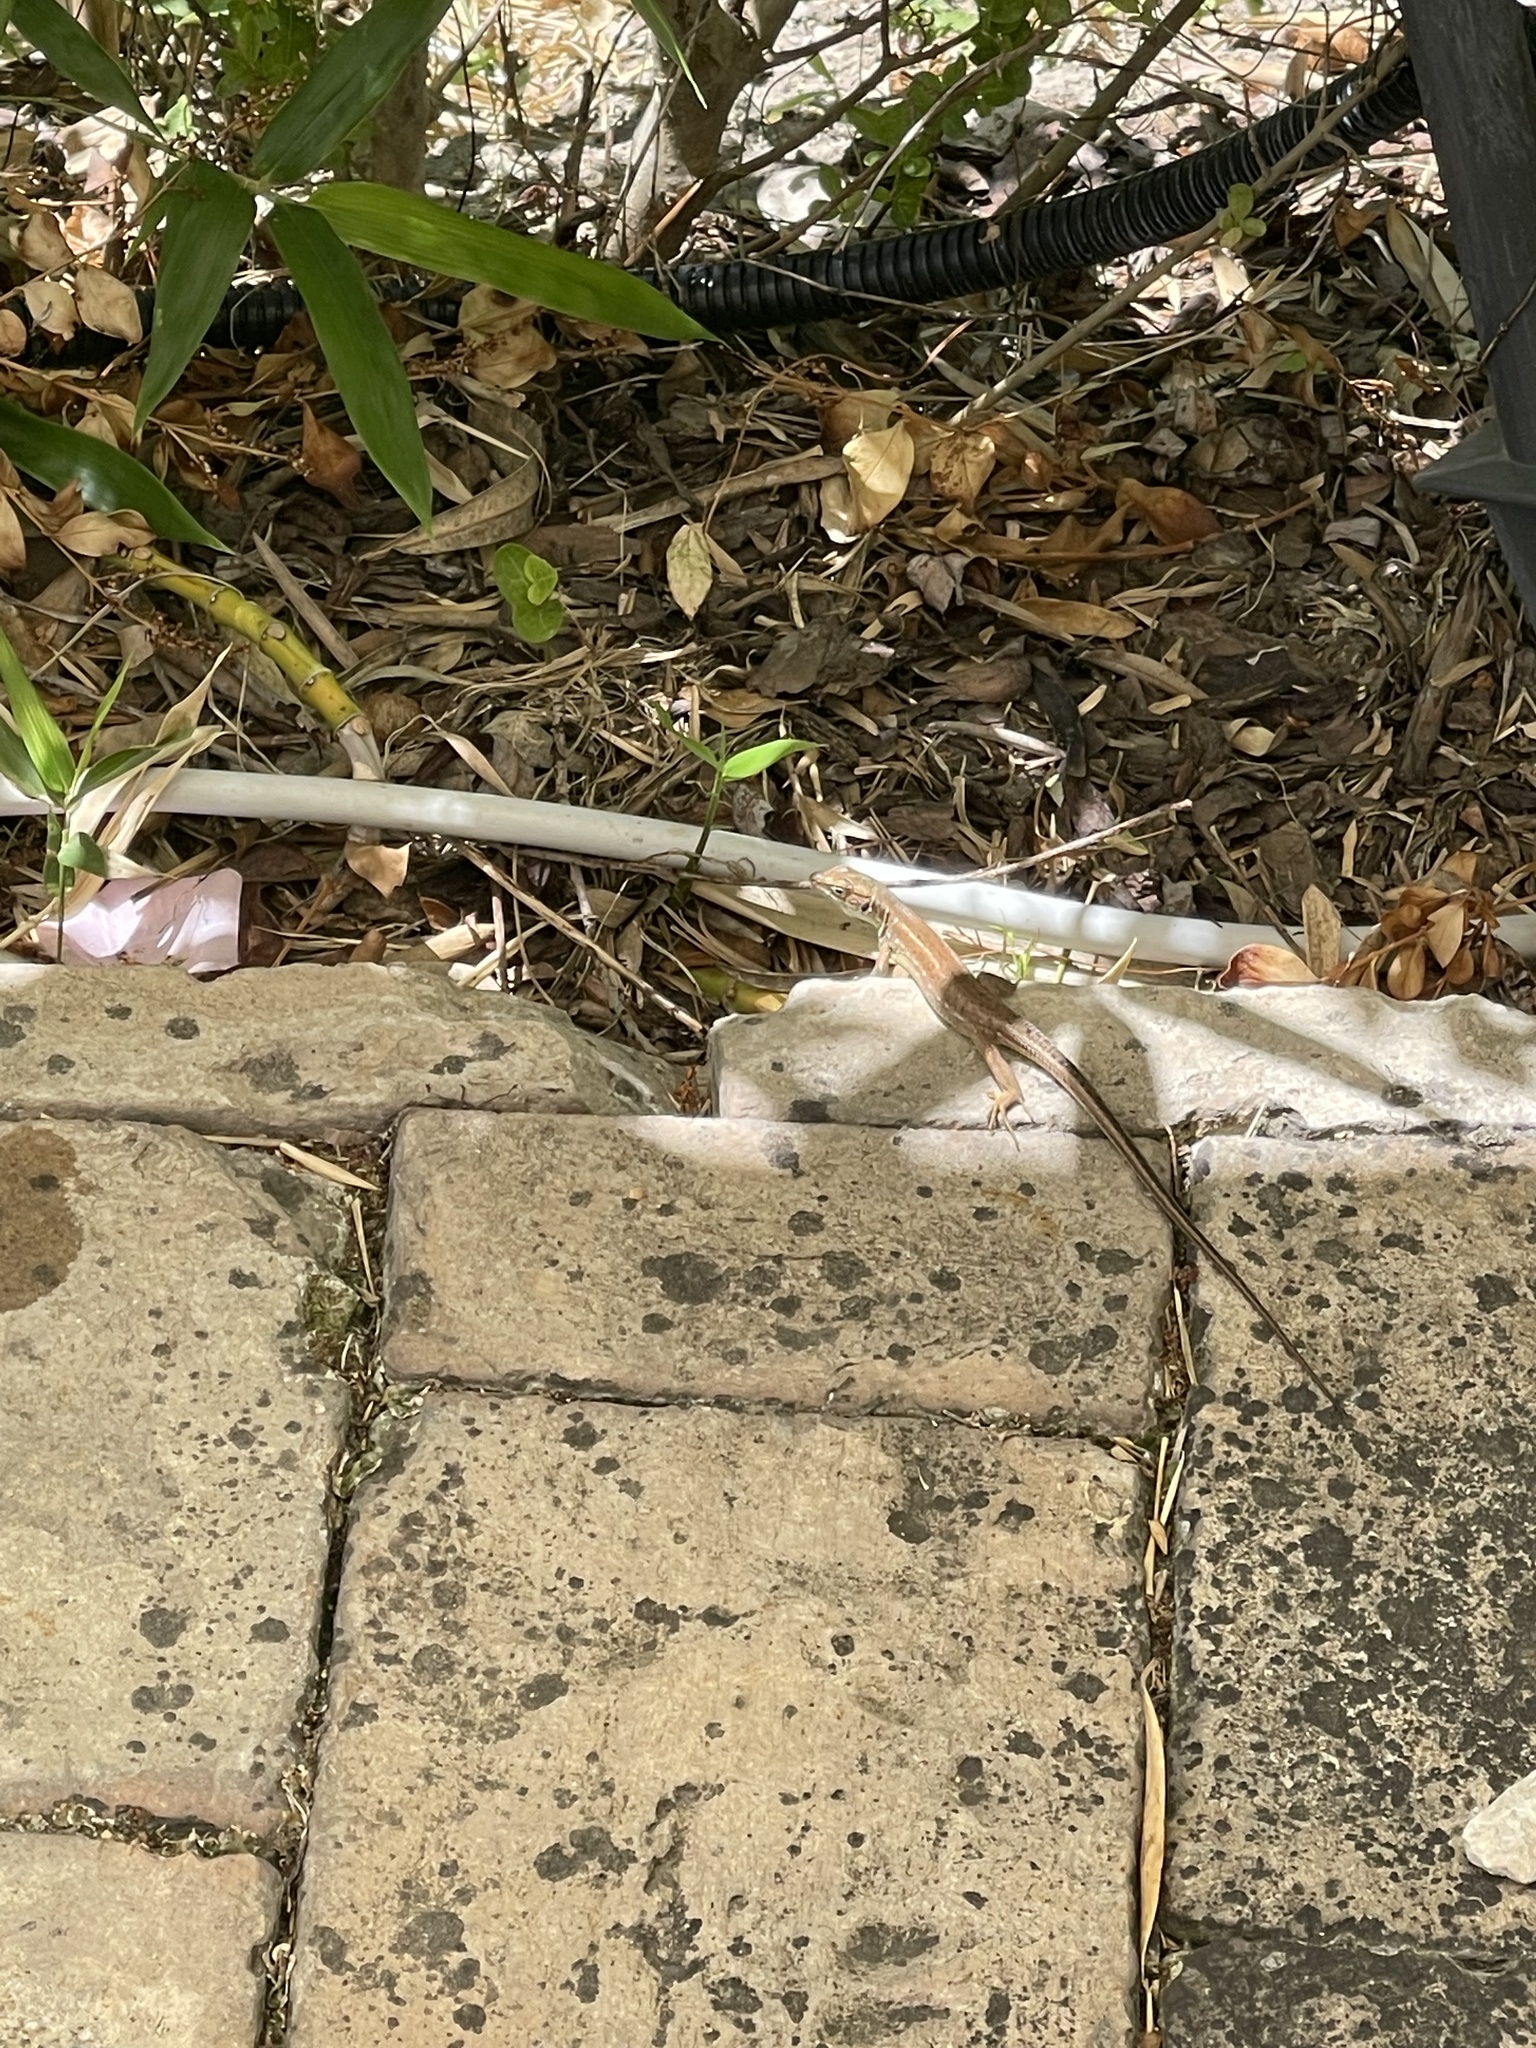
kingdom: Animalia
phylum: Chordata
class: Squamata
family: Lacertidae
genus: Lacerta
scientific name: Lacerta viridis
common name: European green lizard
